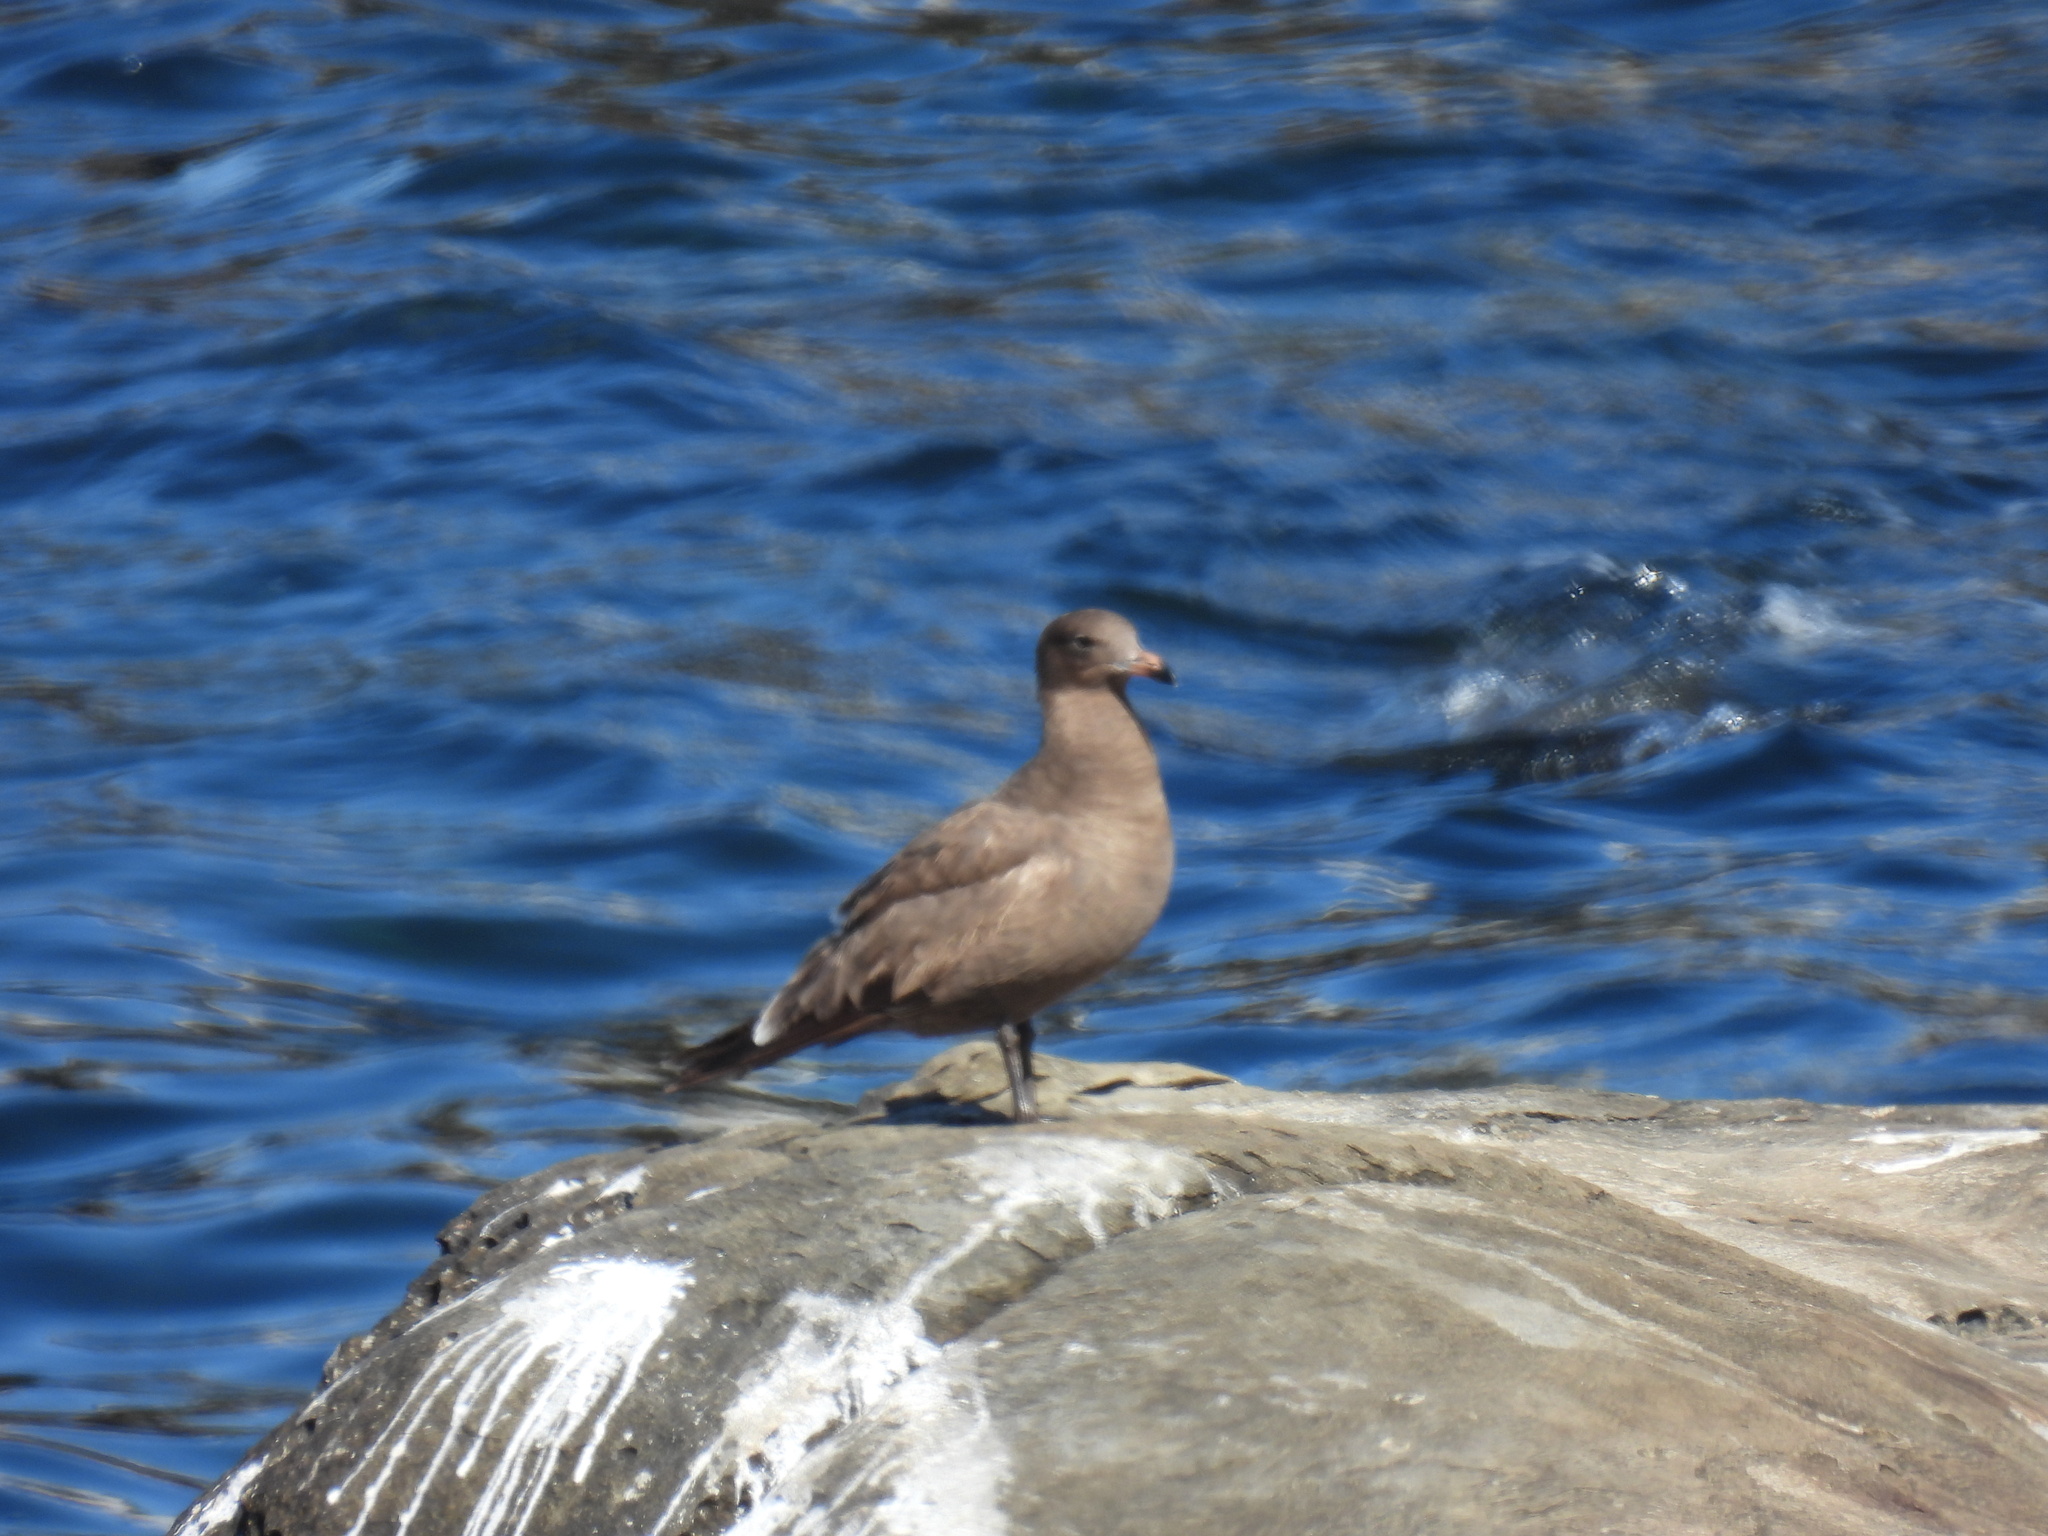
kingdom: Animalia
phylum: Chordata
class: Aves
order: Charadriiformes
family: Laridae
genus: Larus
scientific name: Larus heermanni
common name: Heermann's gull
